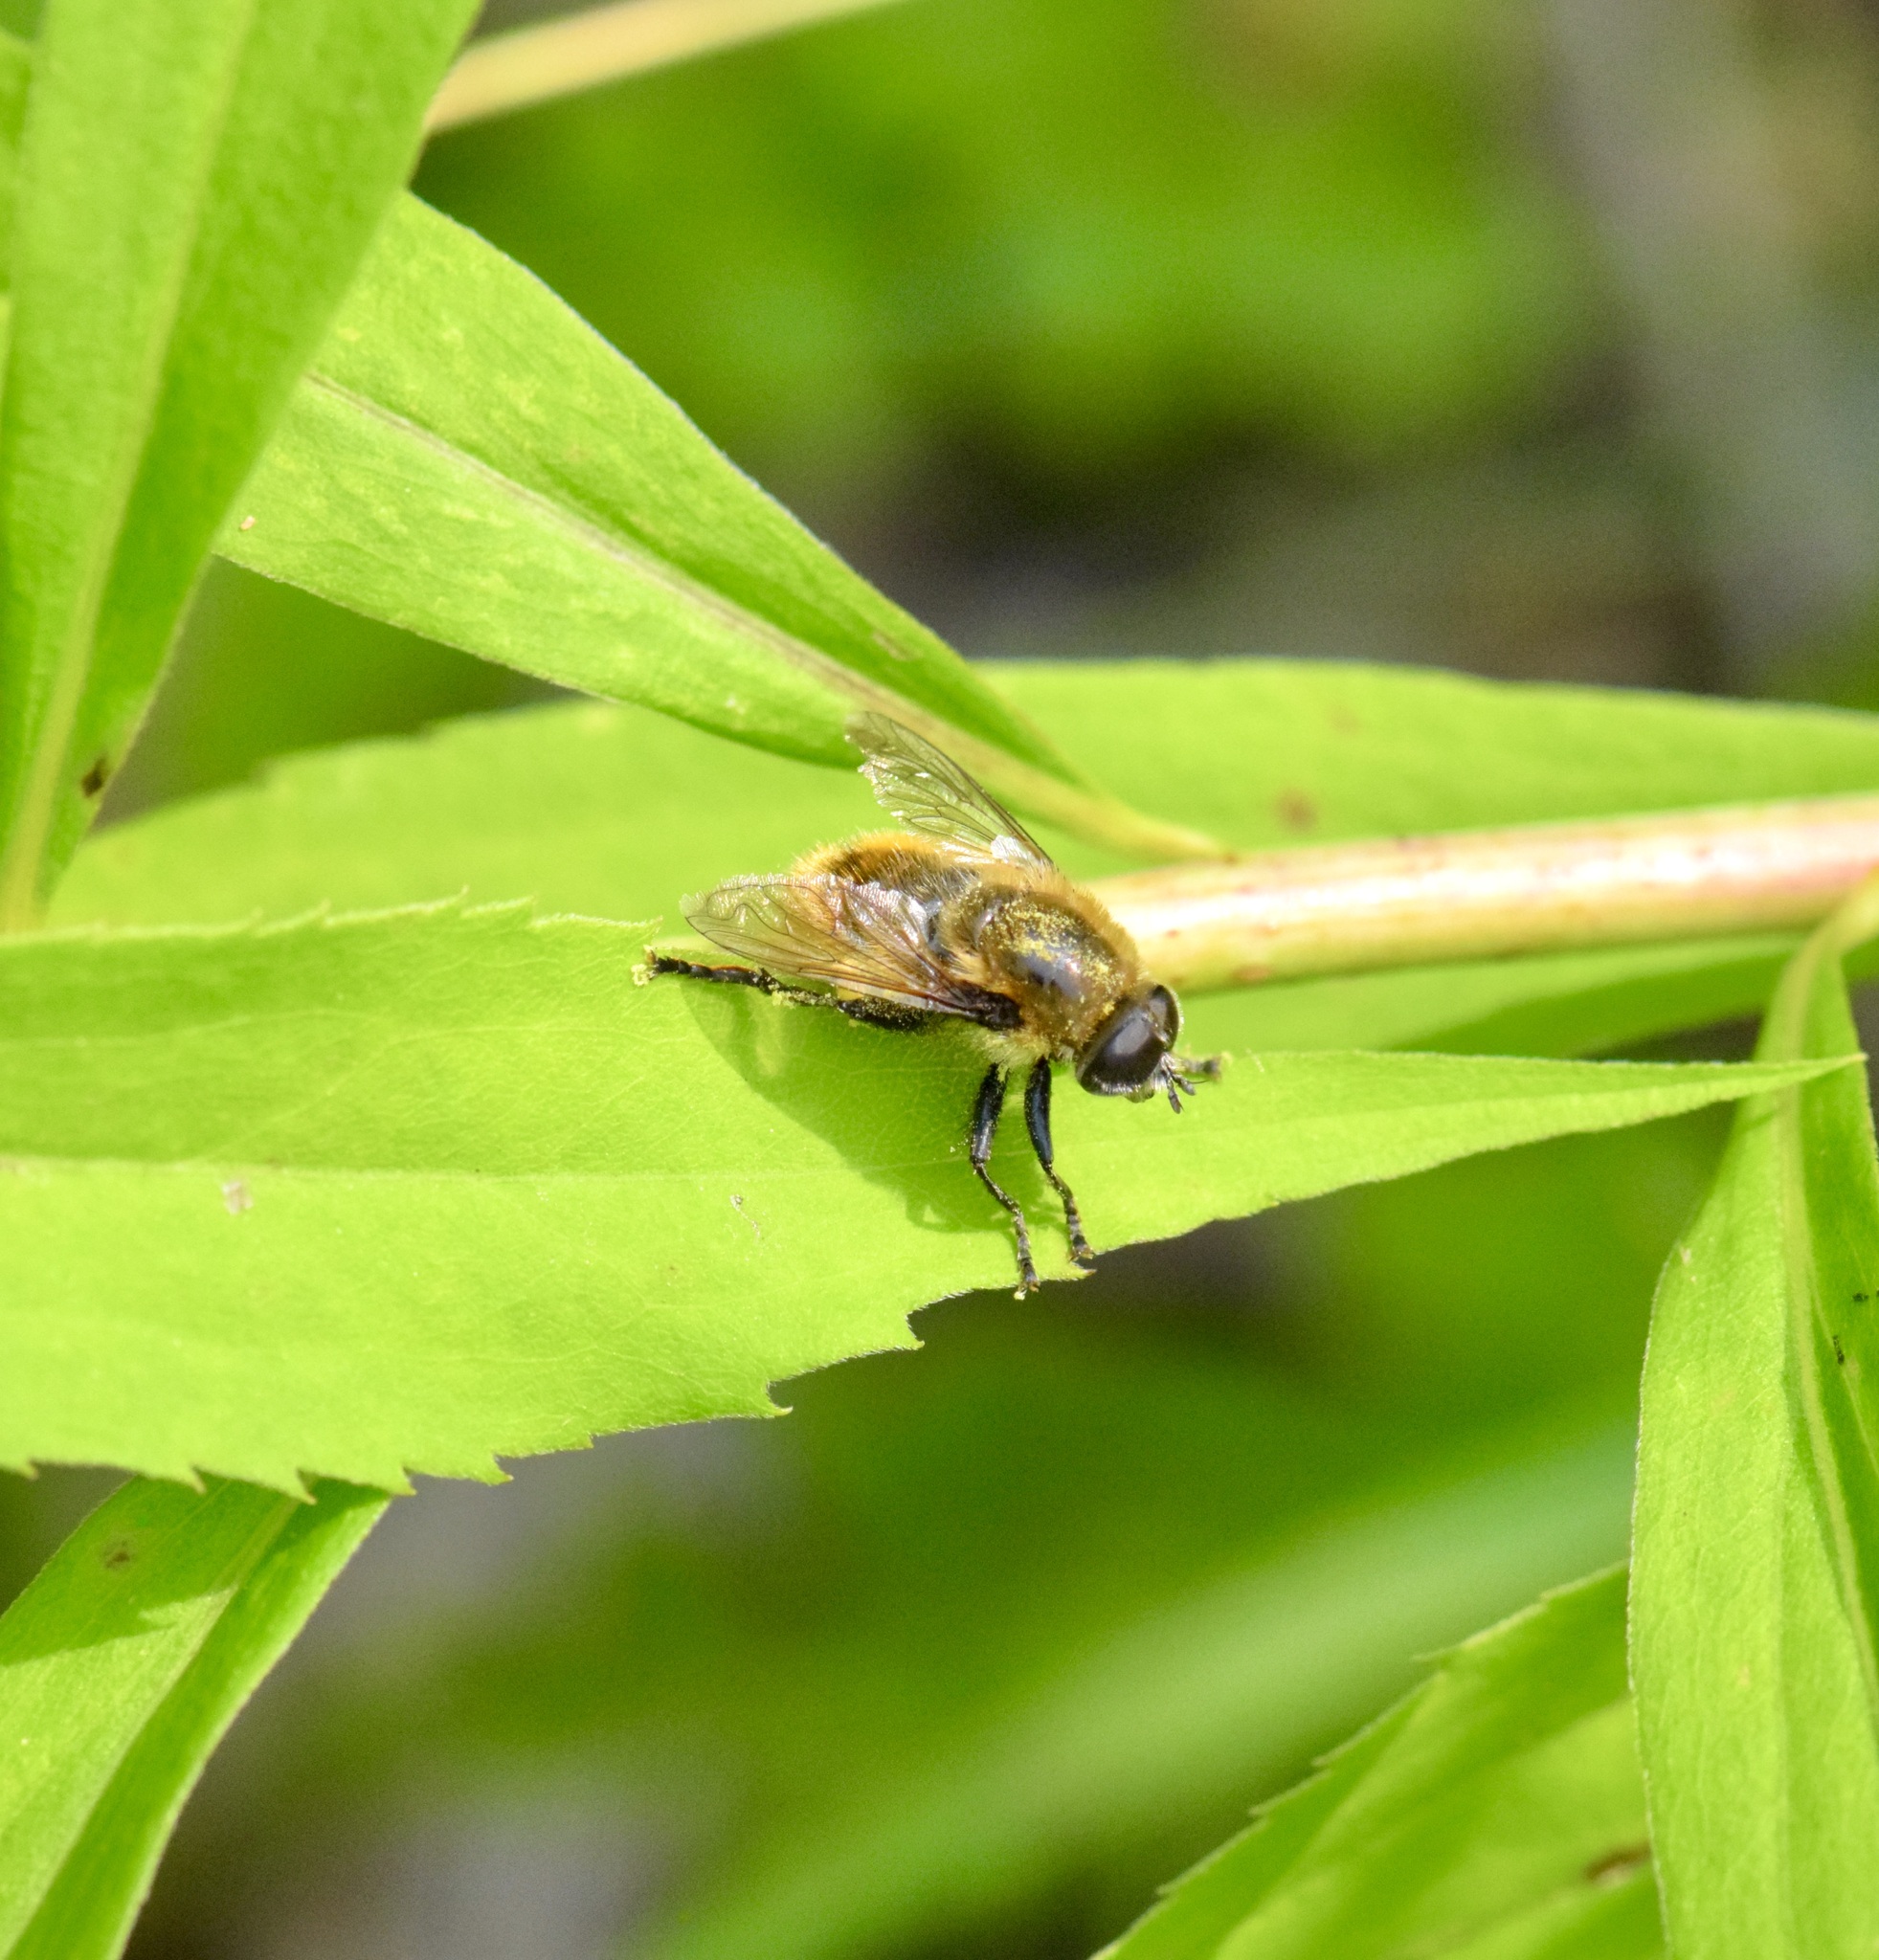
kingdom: Animalia
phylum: Arthropoda
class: Insecta
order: Diptera
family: Syrphidae
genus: Merodon
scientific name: Merodon equestris
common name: Greater bulb-fly
